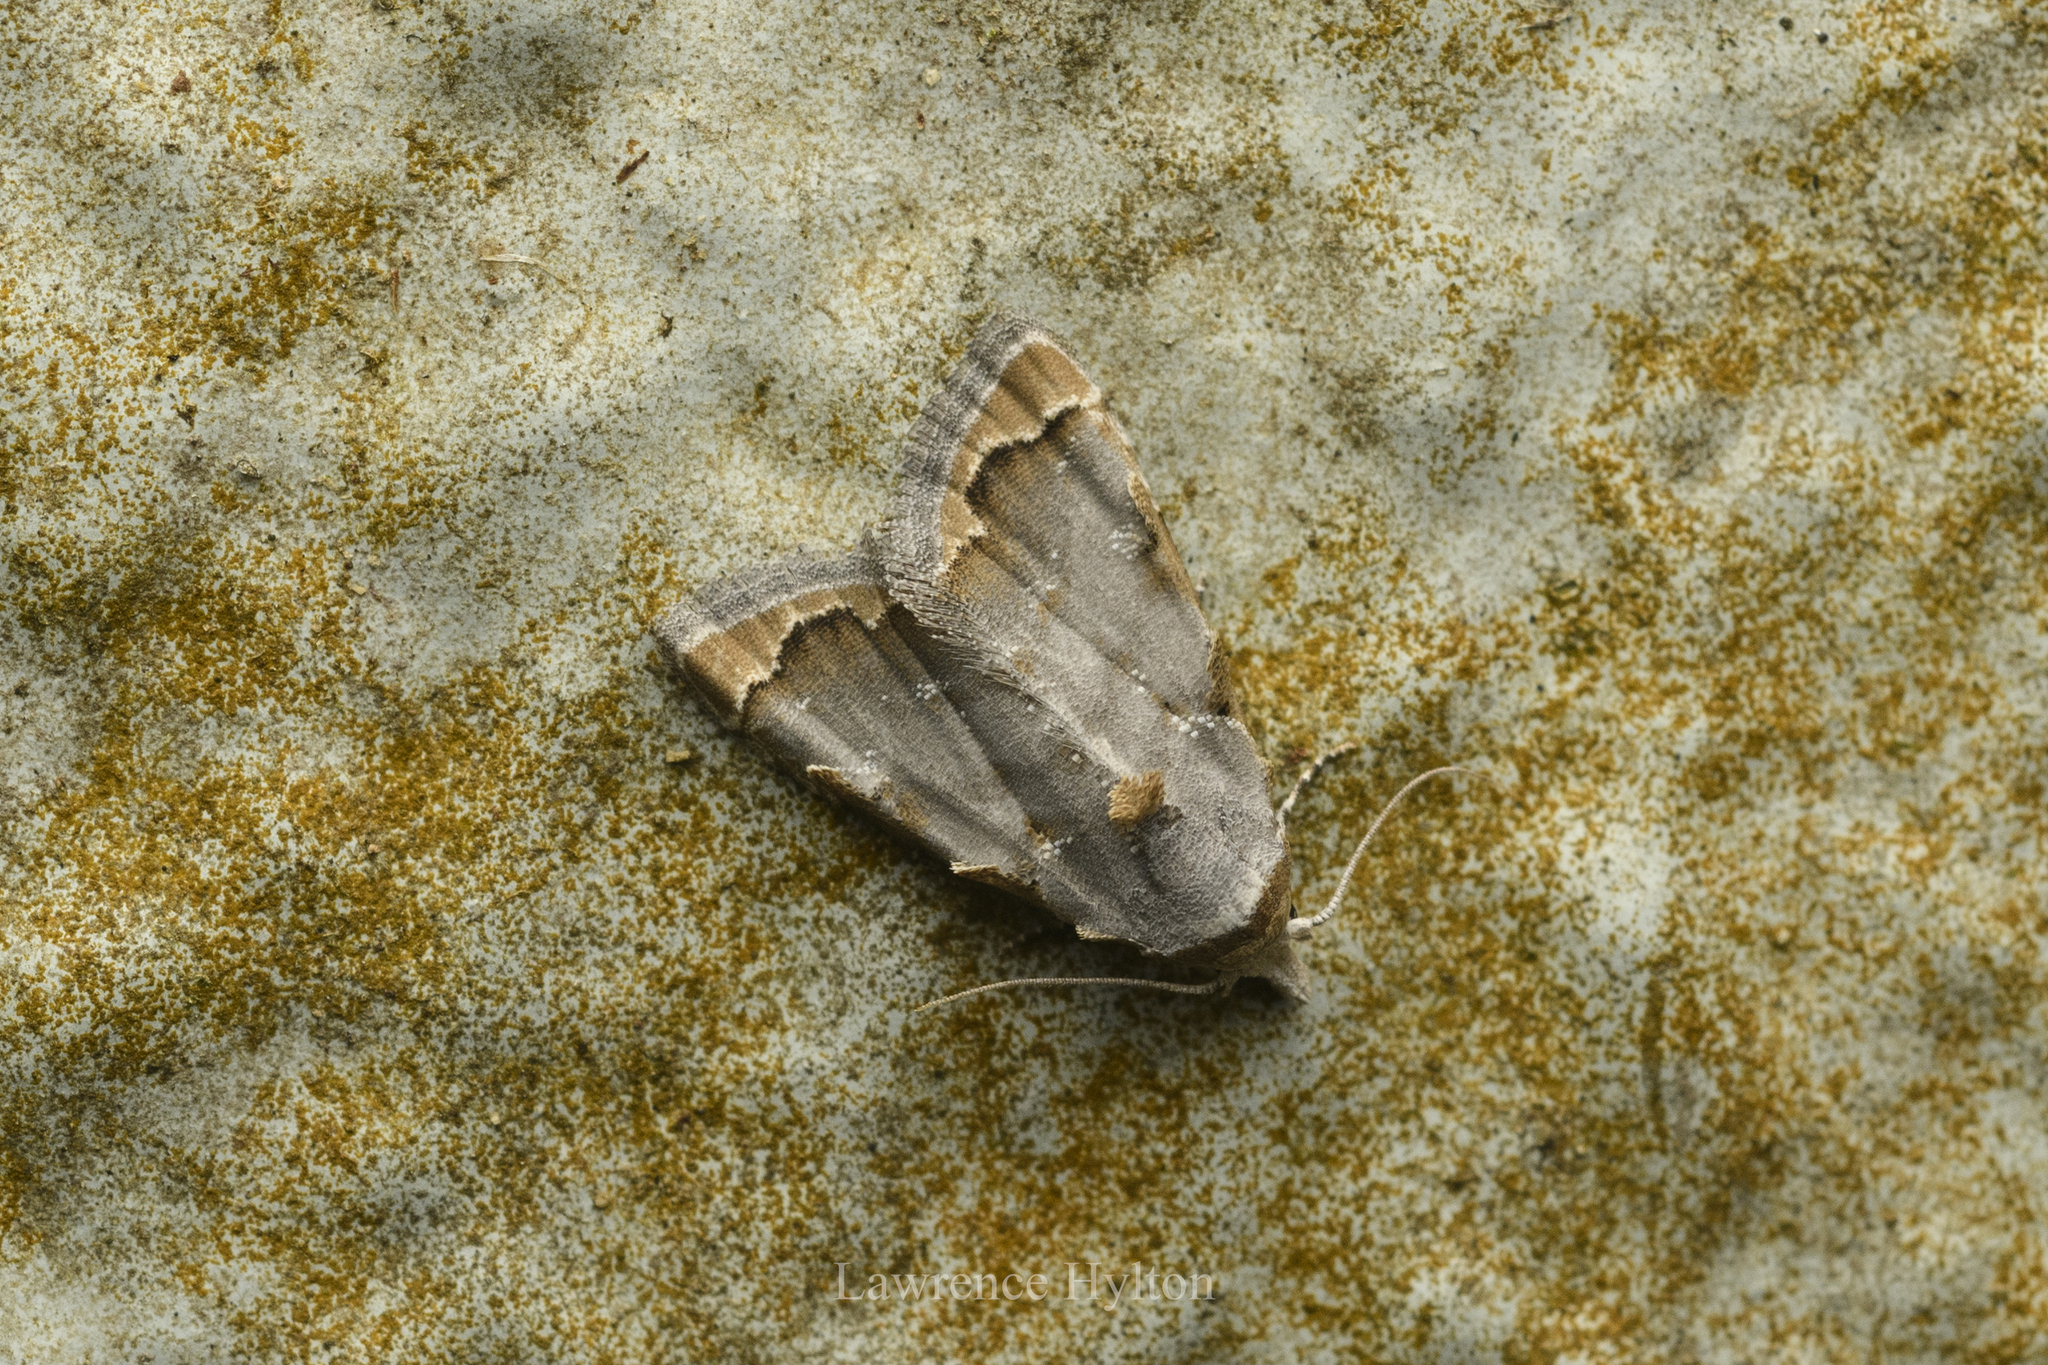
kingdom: Animalia
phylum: Arthropoda
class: Insecta
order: Lepidoptera
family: Nolidae
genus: Nola
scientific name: Nola marginata
